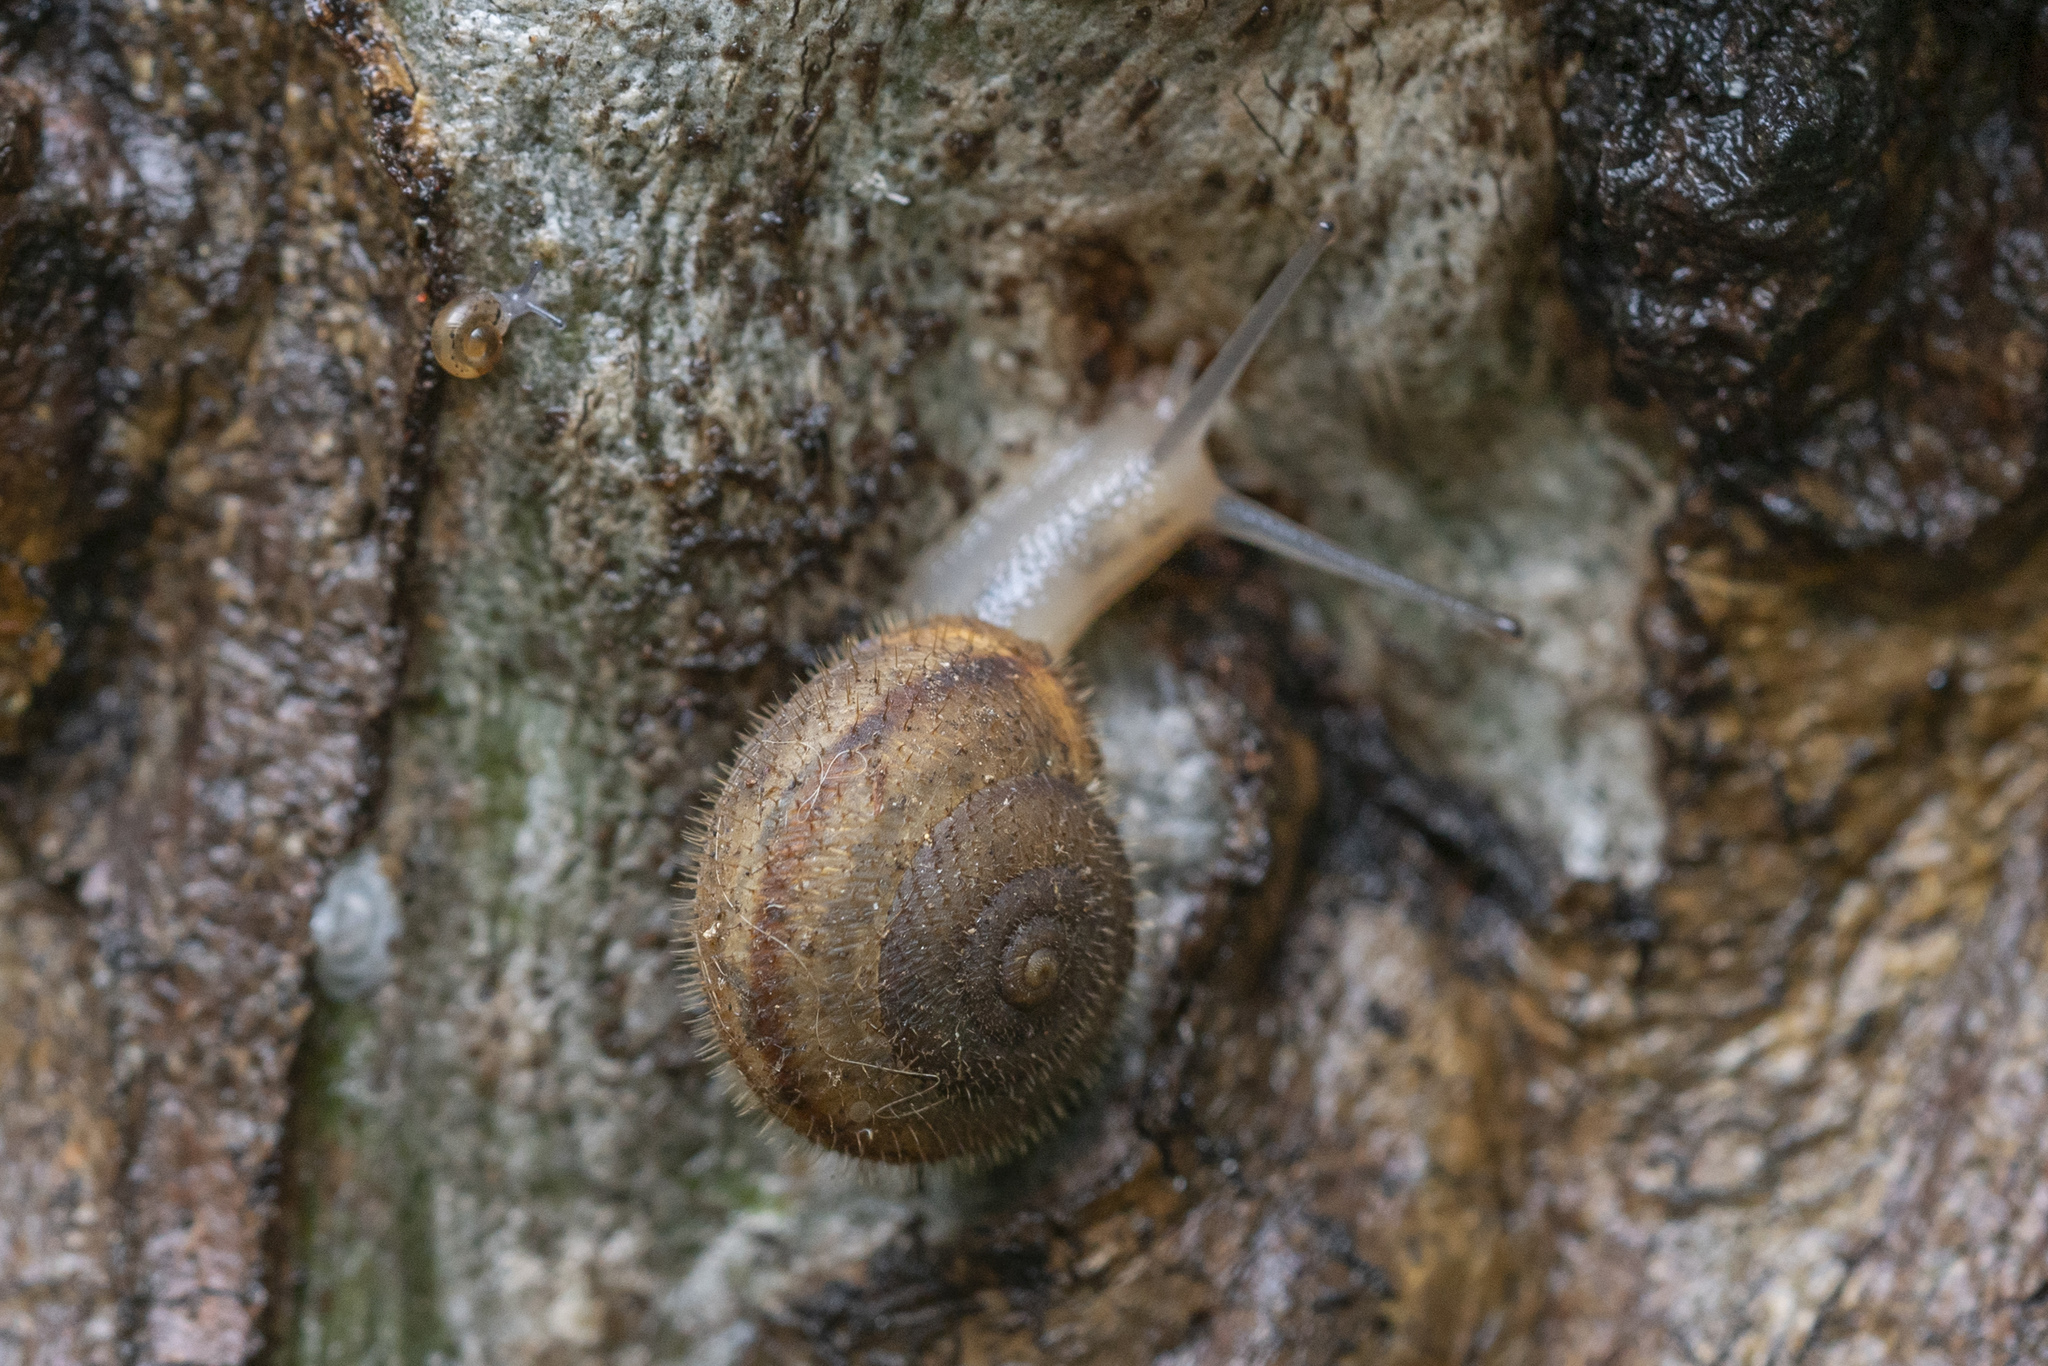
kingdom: Animalia
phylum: Mollusca
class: Gastropoda
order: Stylommatophora
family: Hygromiidae
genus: Metafruticicola
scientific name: Metafruticicola pellita
